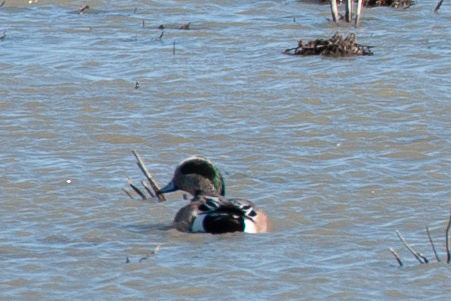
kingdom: Animalia
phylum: Chordata
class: Aves
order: Anseriformes
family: Anatidae
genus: Mareca
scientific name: Mareca americana
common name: American wigeon
